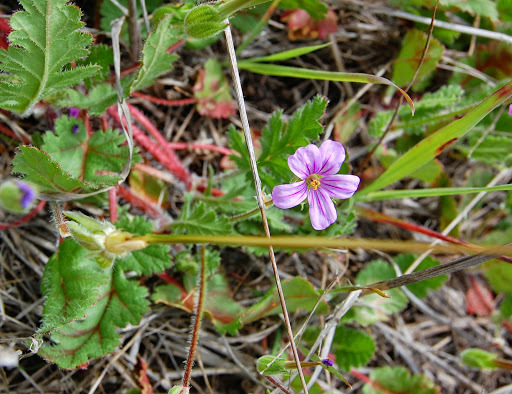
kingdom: Plantae
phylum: Tracheophyta
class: Magnoliopsida
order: Geraniales
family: Geraniaceae
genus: Erodium
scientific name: Erodium botrys
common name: Mediterranean stork's-bill
